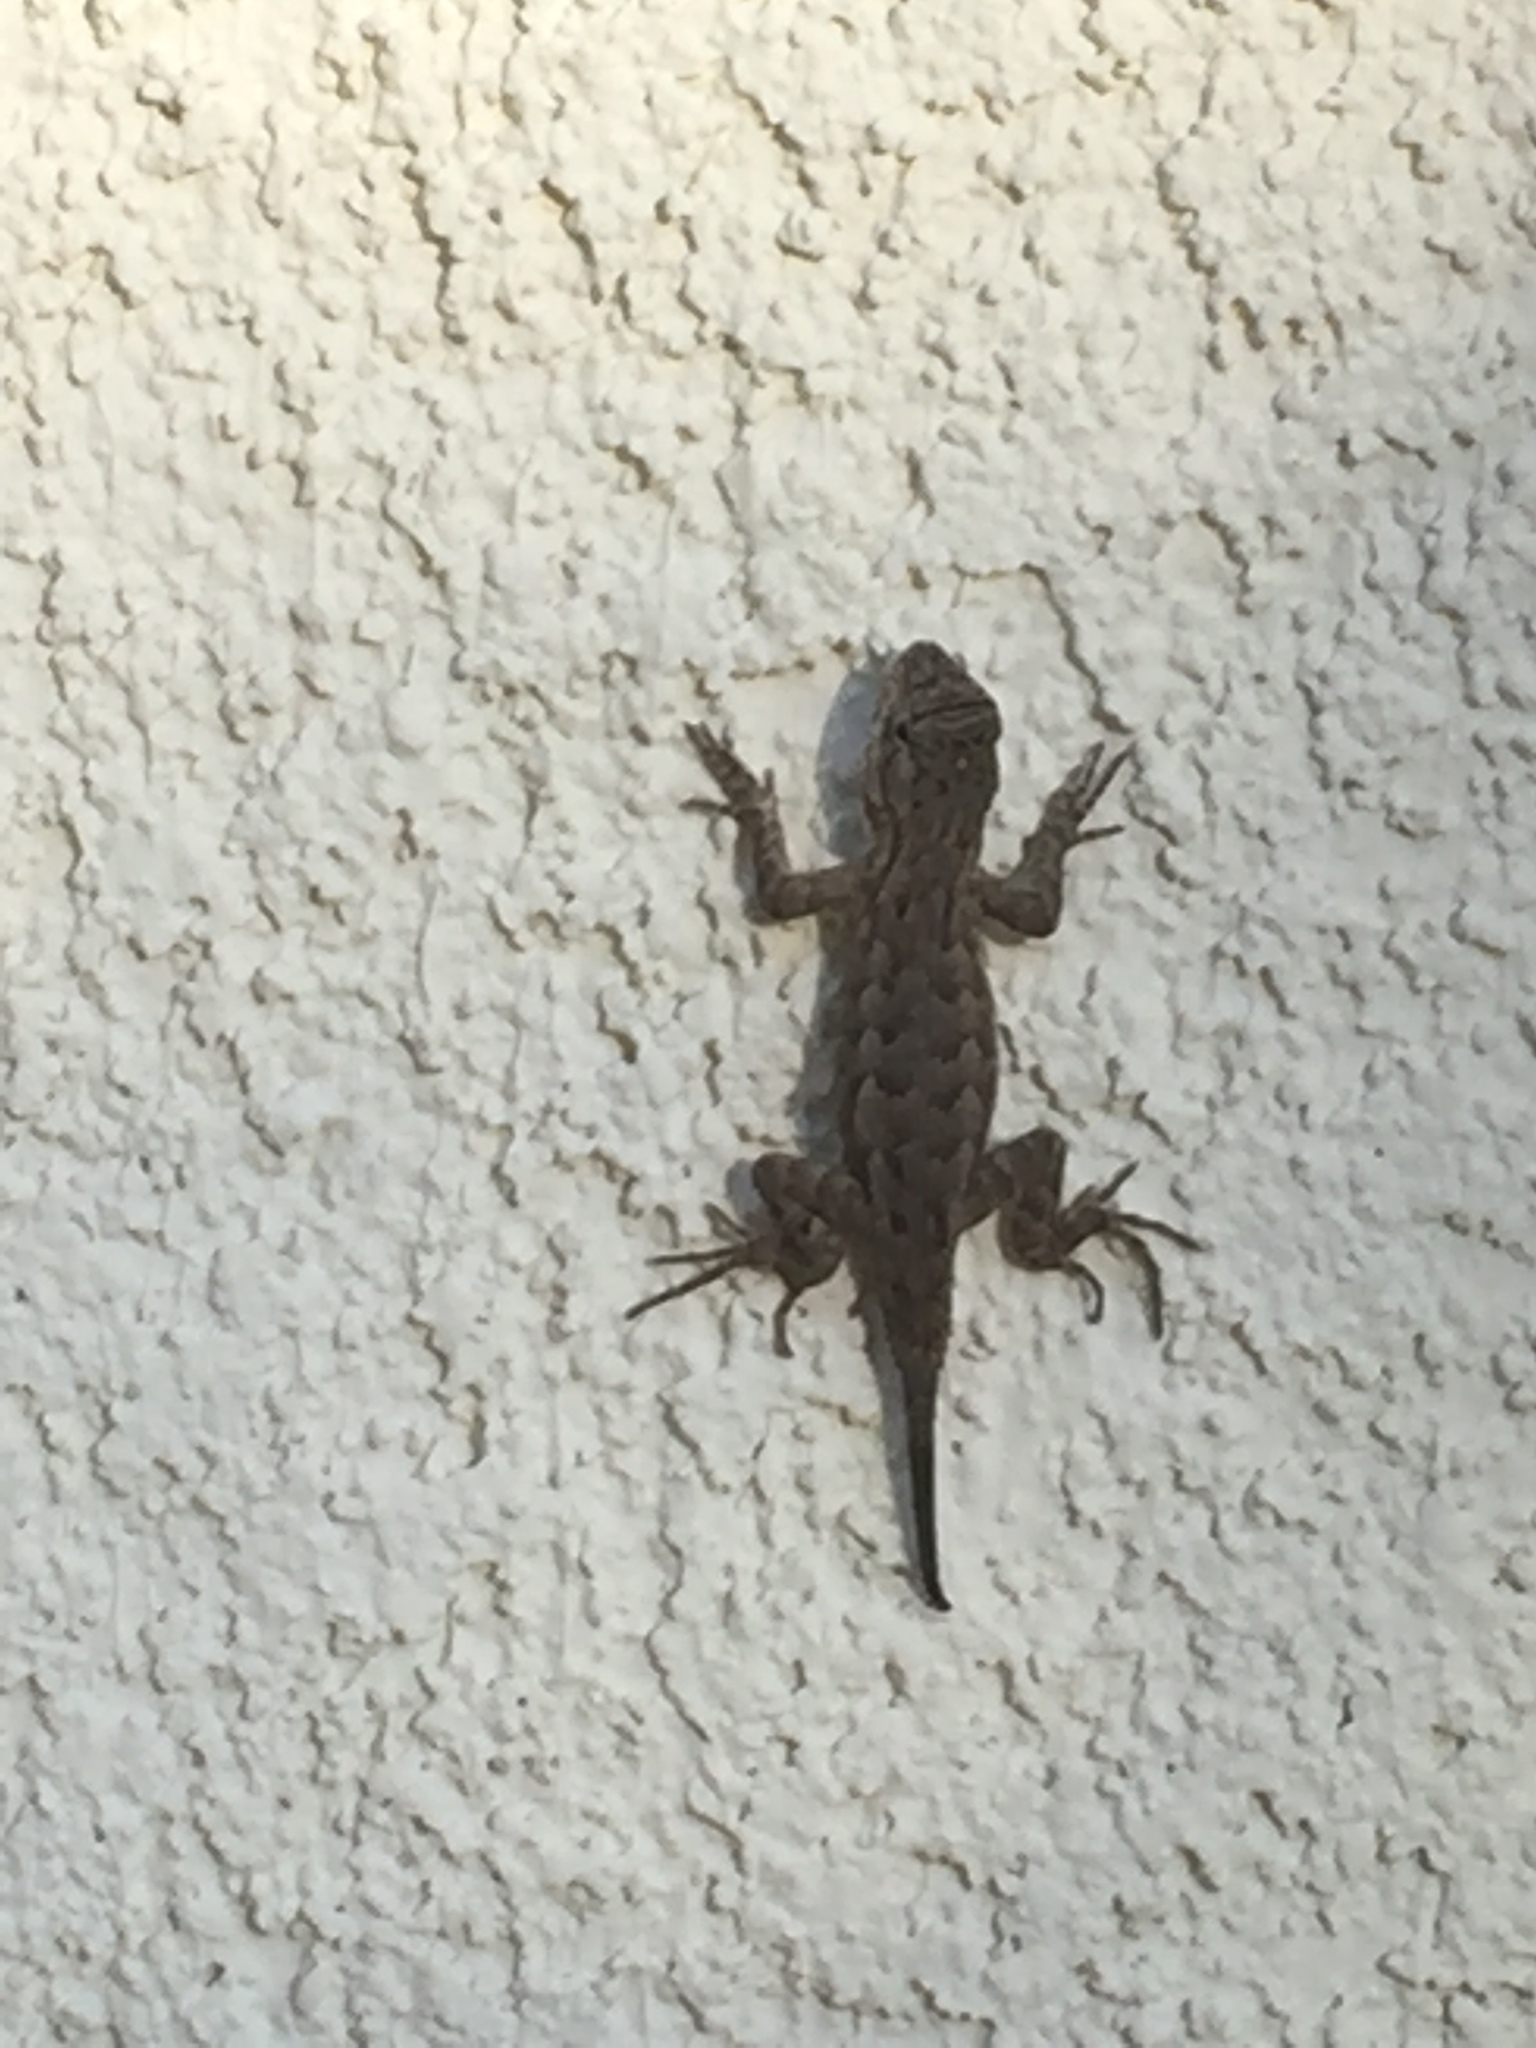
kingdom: Animalia
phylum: Chordata
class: Squamata
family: Phrynosomatidae
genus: Sceloporus
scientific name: Sceloporus occidentalis
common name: Western fence lizard
